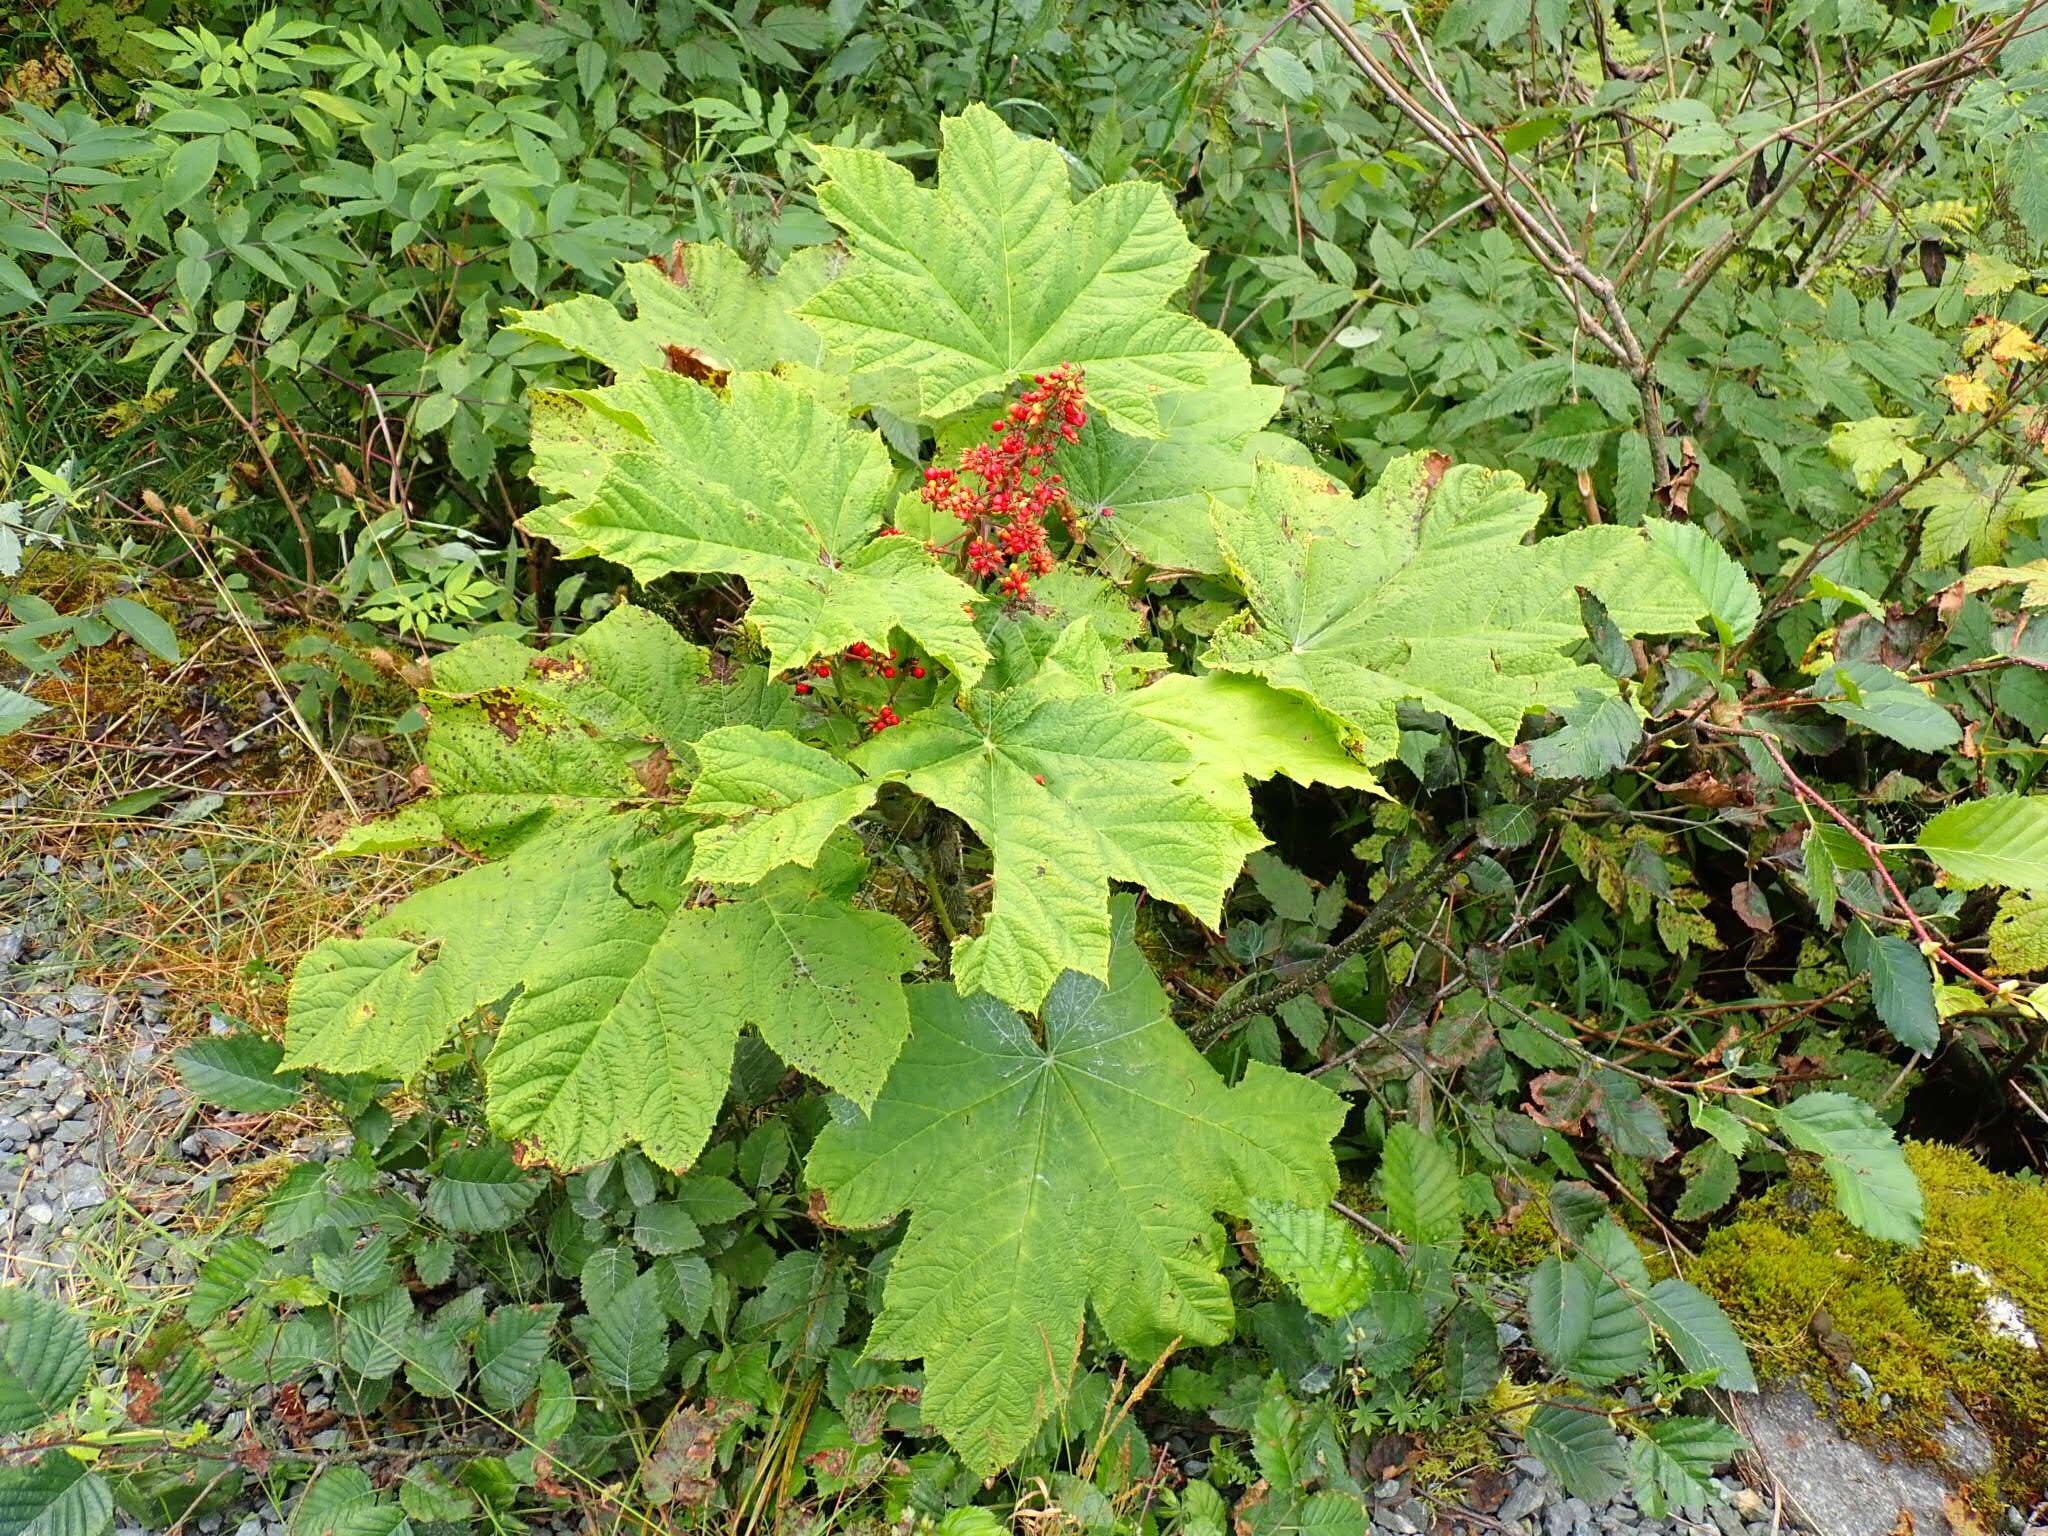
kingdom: Plantae
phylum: Tracheophyta
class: Magnoliopsida
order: Apiales
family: Araliaceae
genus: Oplopanax
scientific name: Oplopanax horridus
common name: Devil's walking-stick
